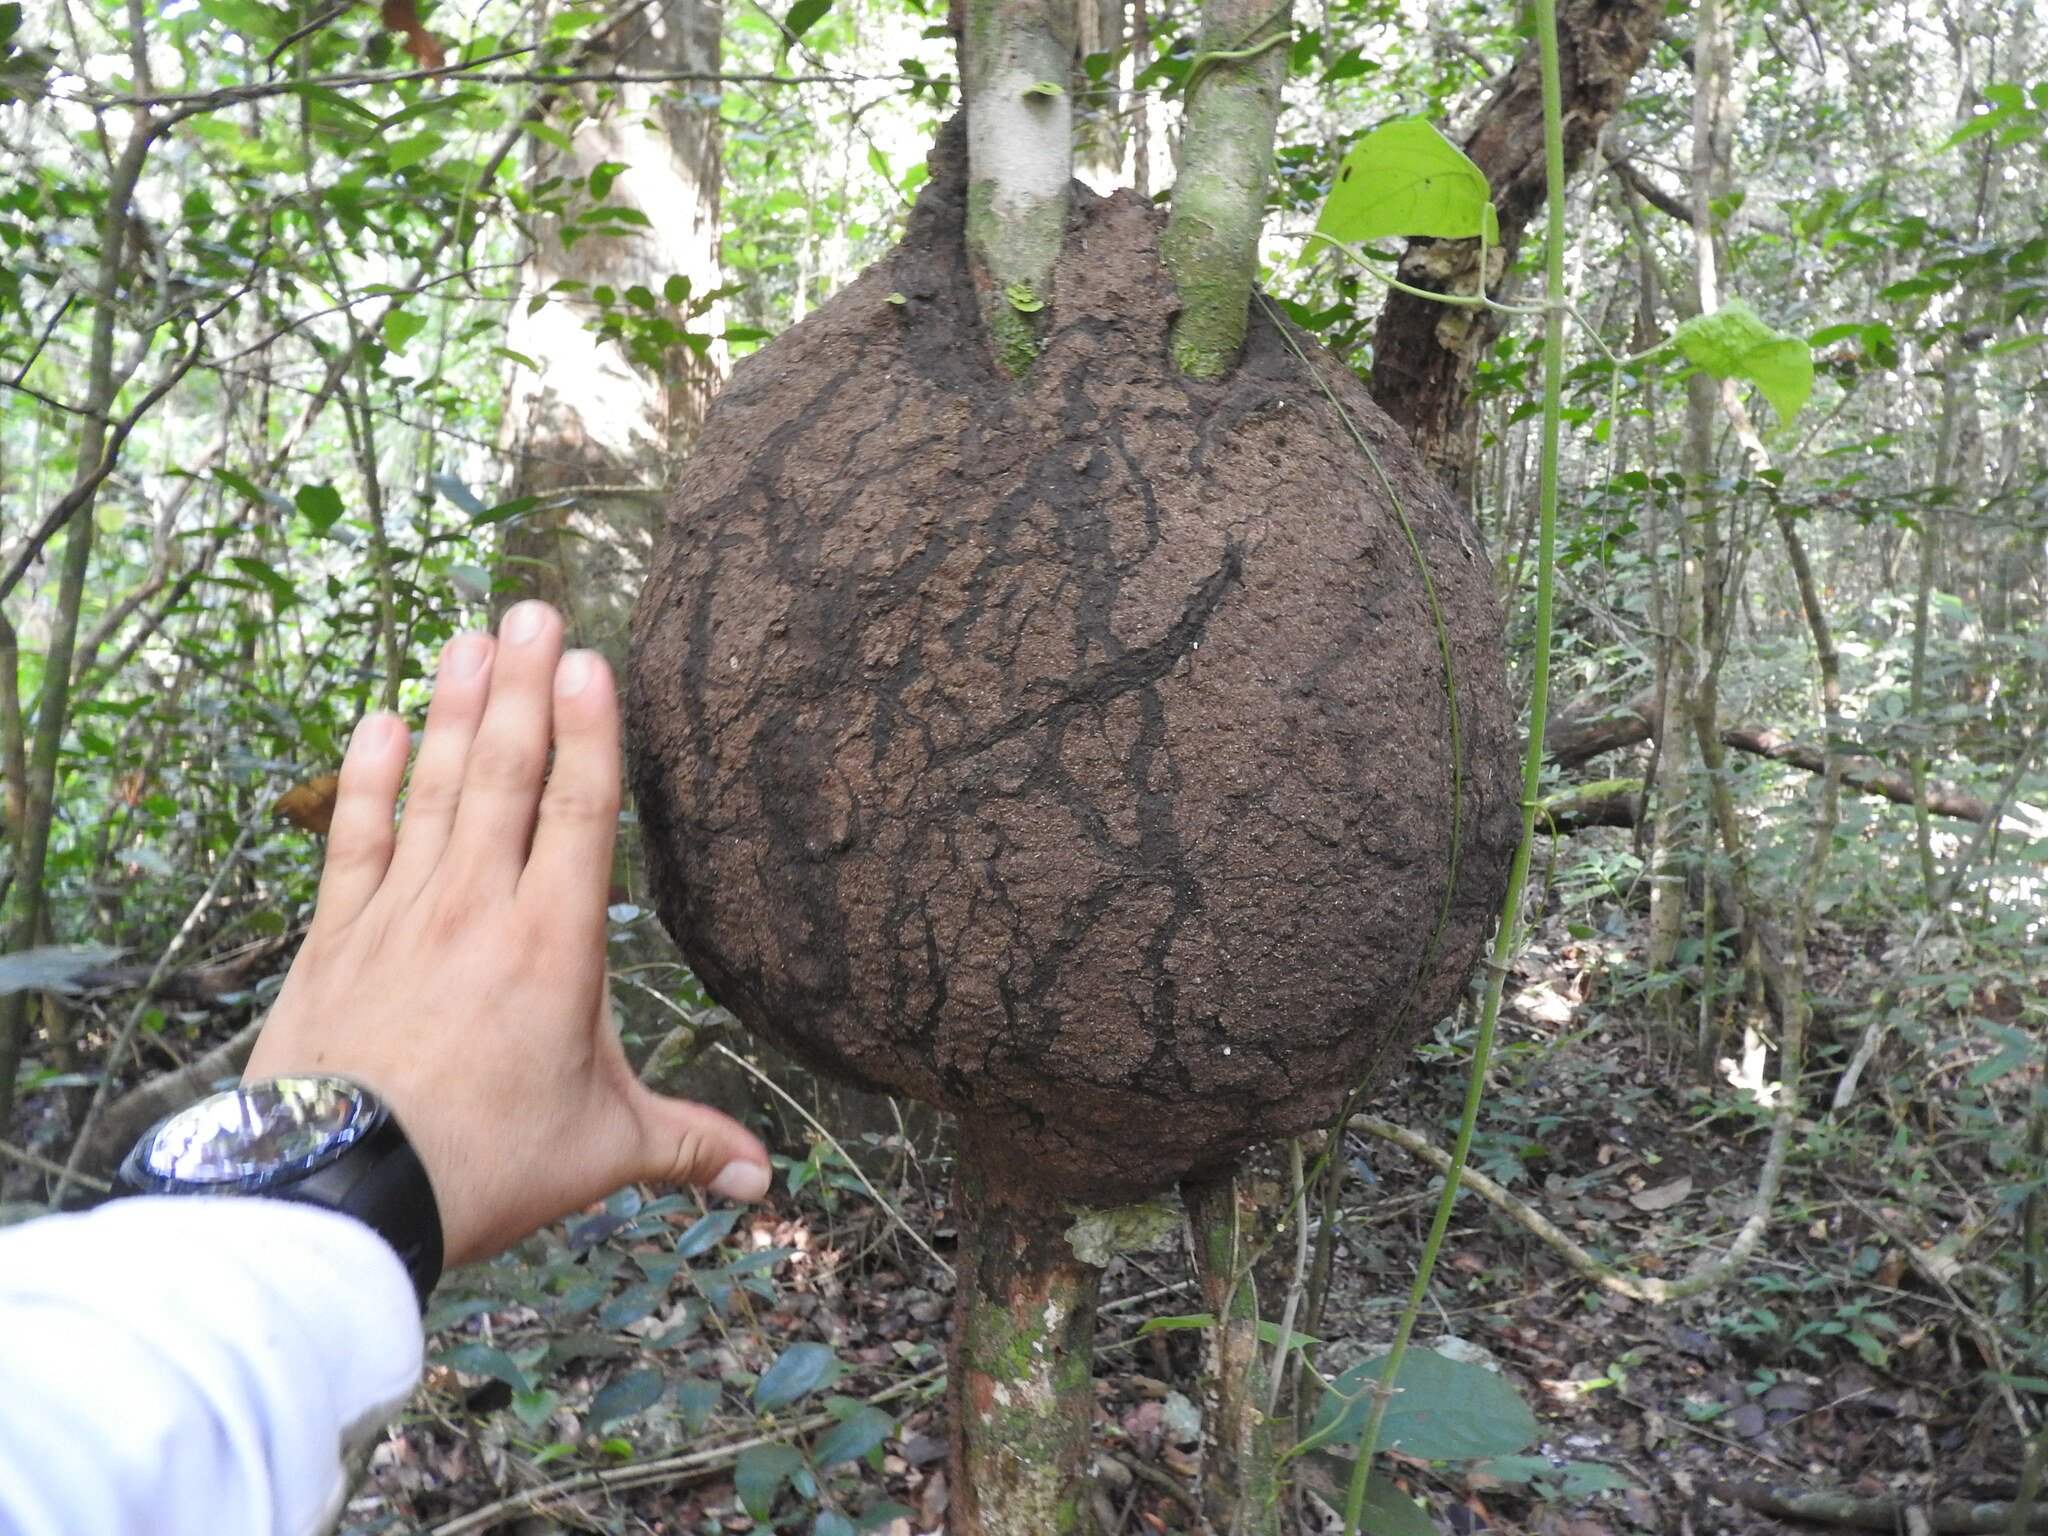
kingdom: Animalia
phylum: Arthropoda
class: Insecta
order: Blattodea
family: Termitidae
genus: Nasutitermes
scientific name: Nasutitermes ephratae
